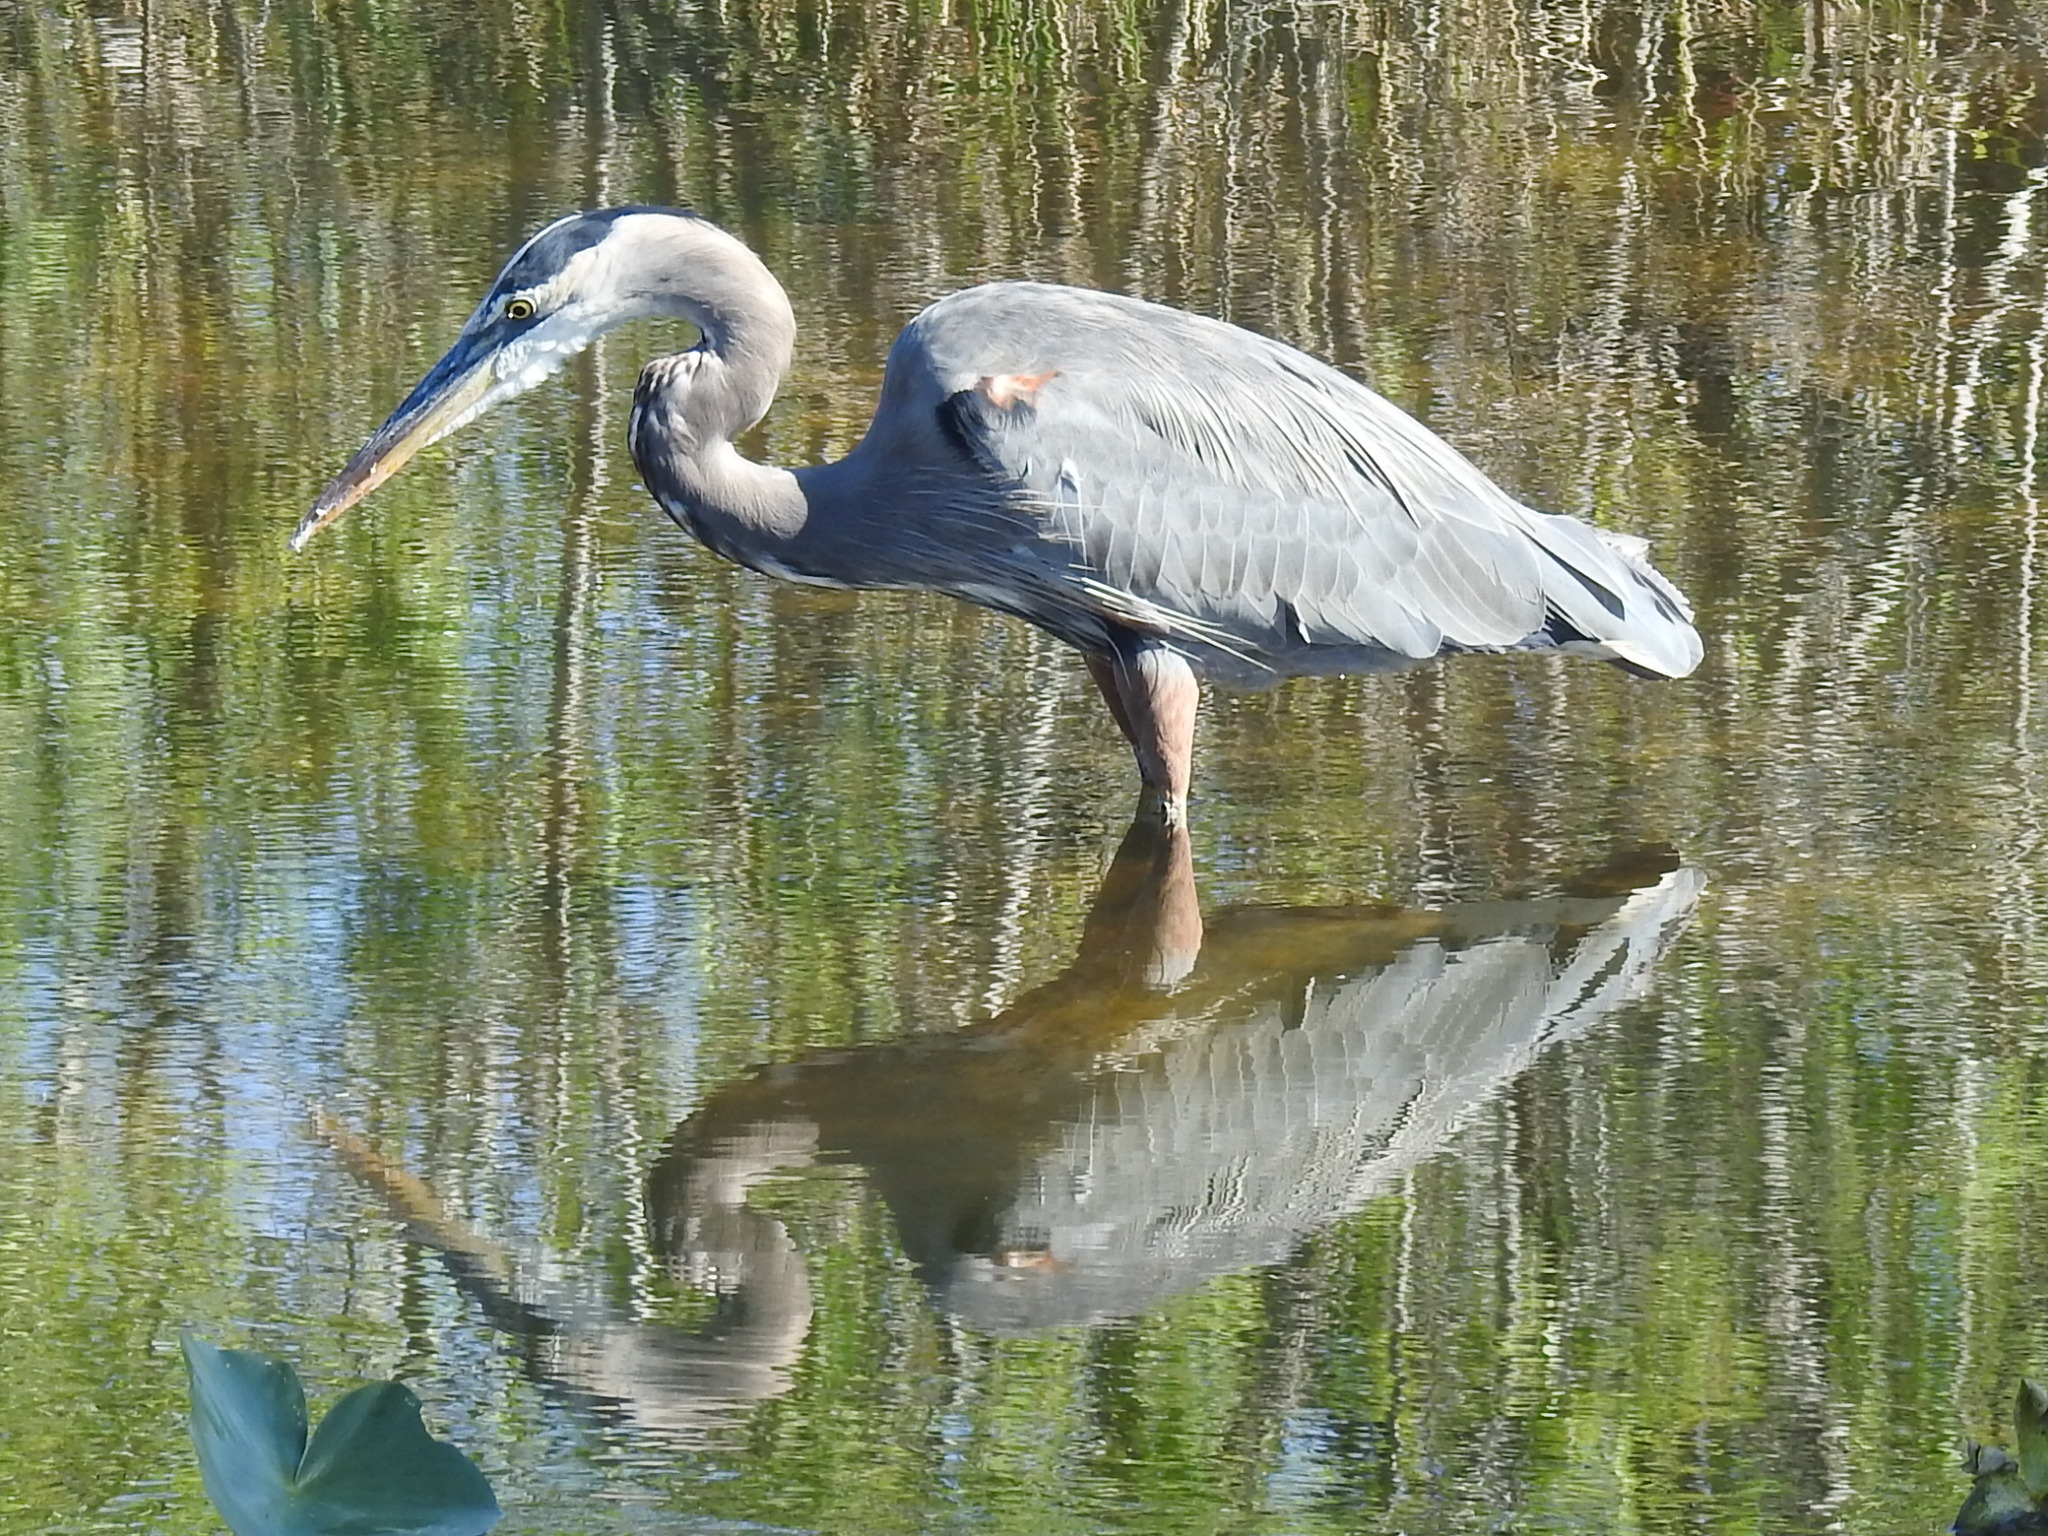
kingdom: Animalia
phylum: Chordata
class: Aves
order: Pelecaniformes
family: Ardeidae
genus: Ardea
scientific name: Ardea herodias
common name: Great blue heron
